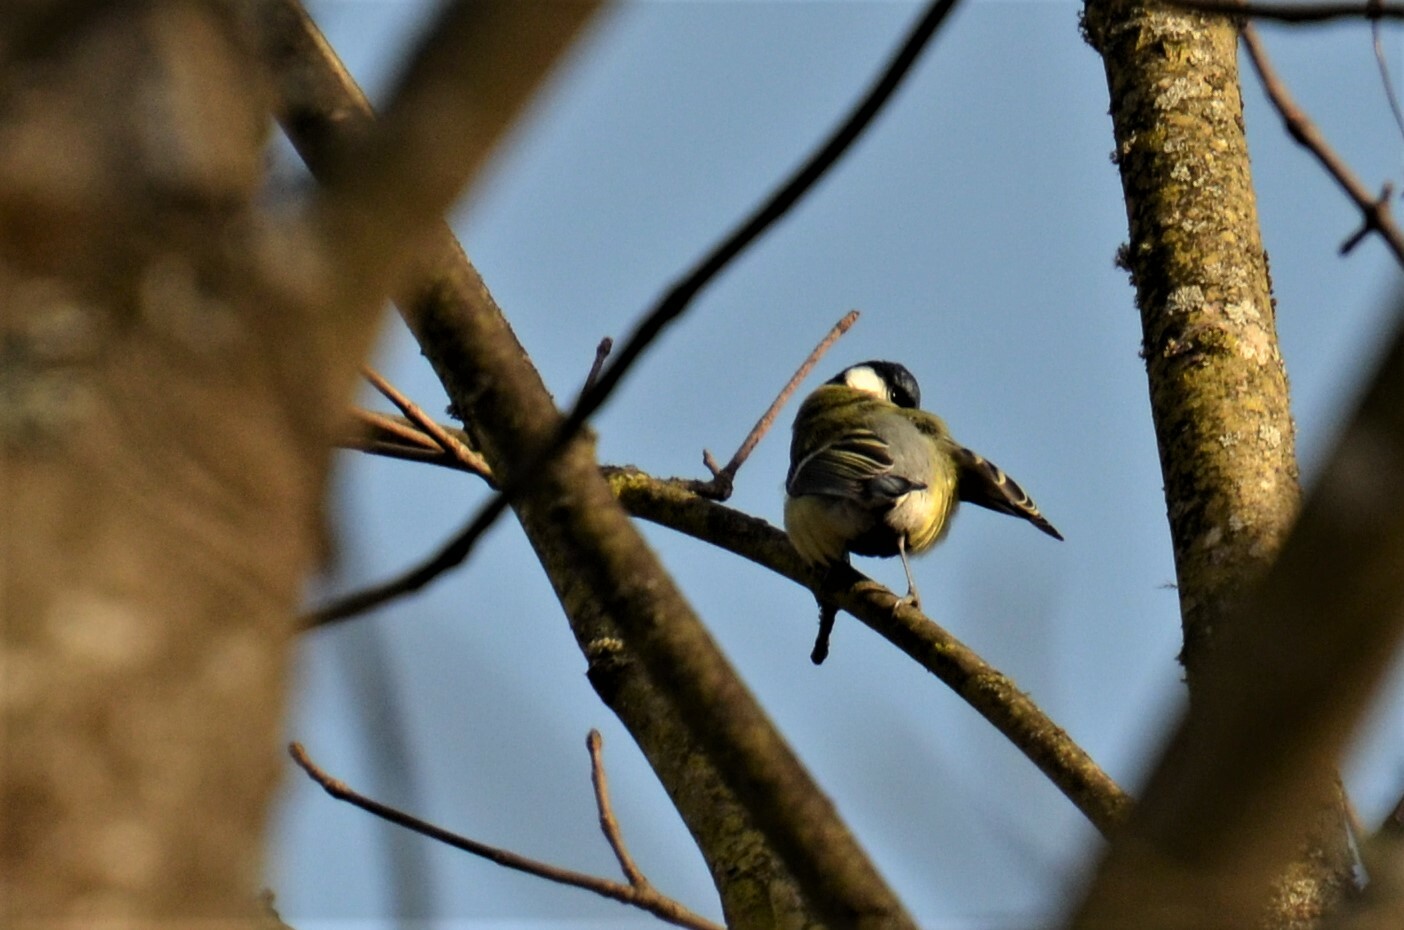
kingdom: Animalia
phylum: Chordata
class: Aves
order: Passeriformes
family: Paridae
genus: Parus
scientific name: Parus major
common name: Great tit
